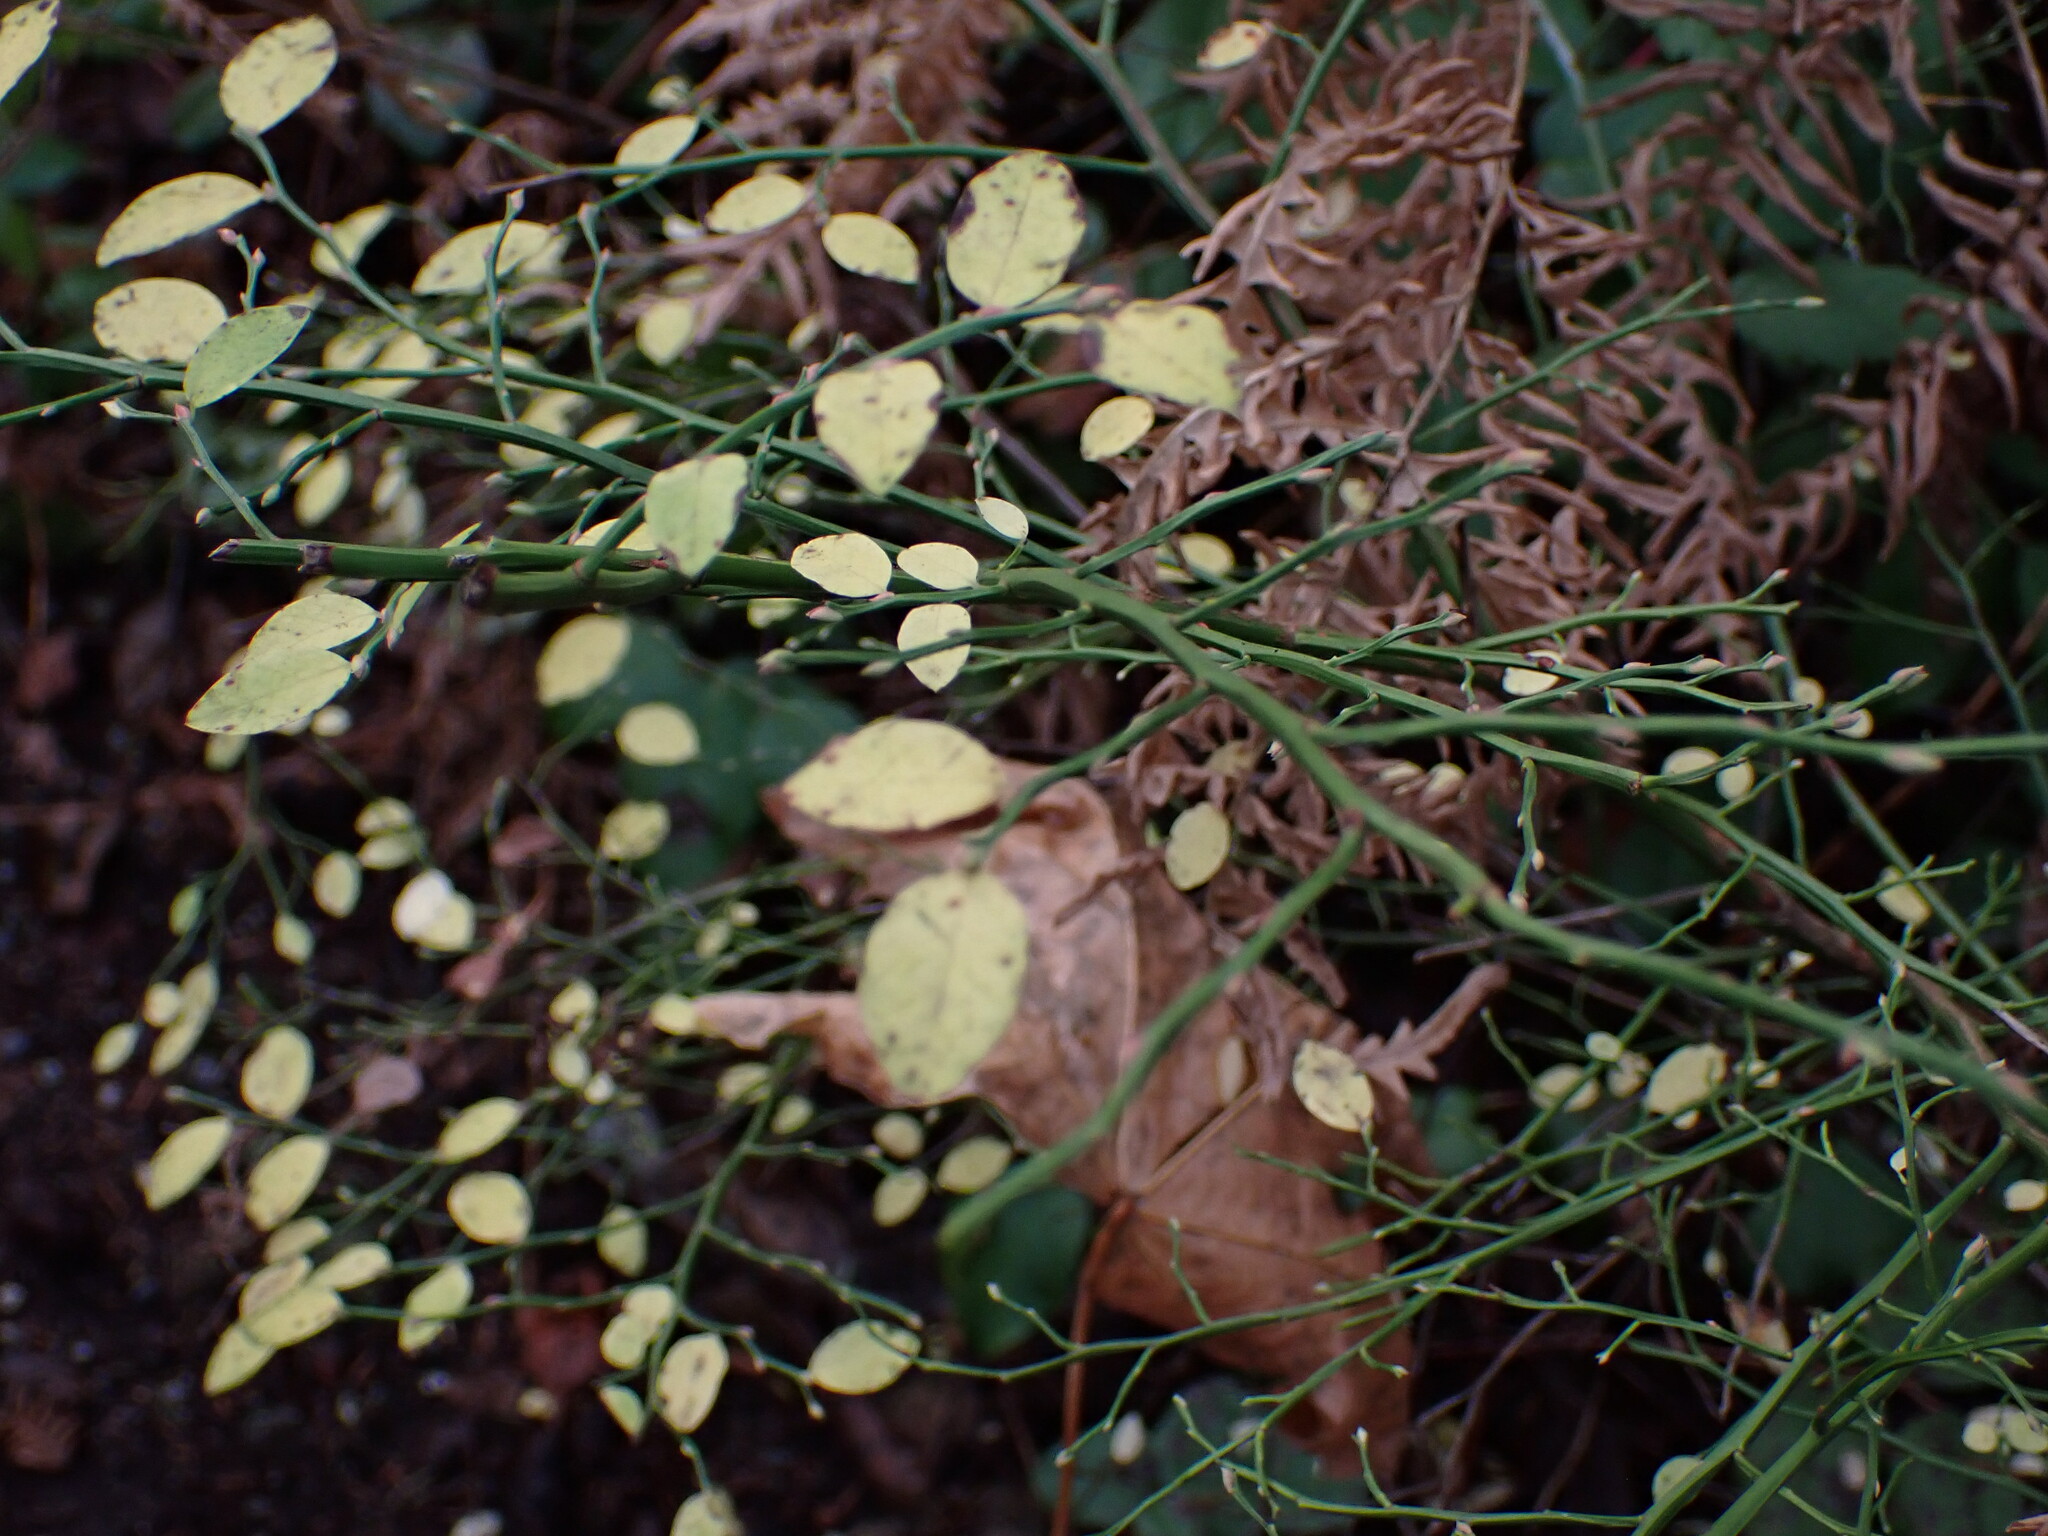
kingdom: Plantae
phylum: Tracheophyta
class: Magnoliopsida
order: Ericales
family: Ericaceae
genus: Vaccinium
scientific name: Vaccinium parvifolium
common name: Red-huckleberry
